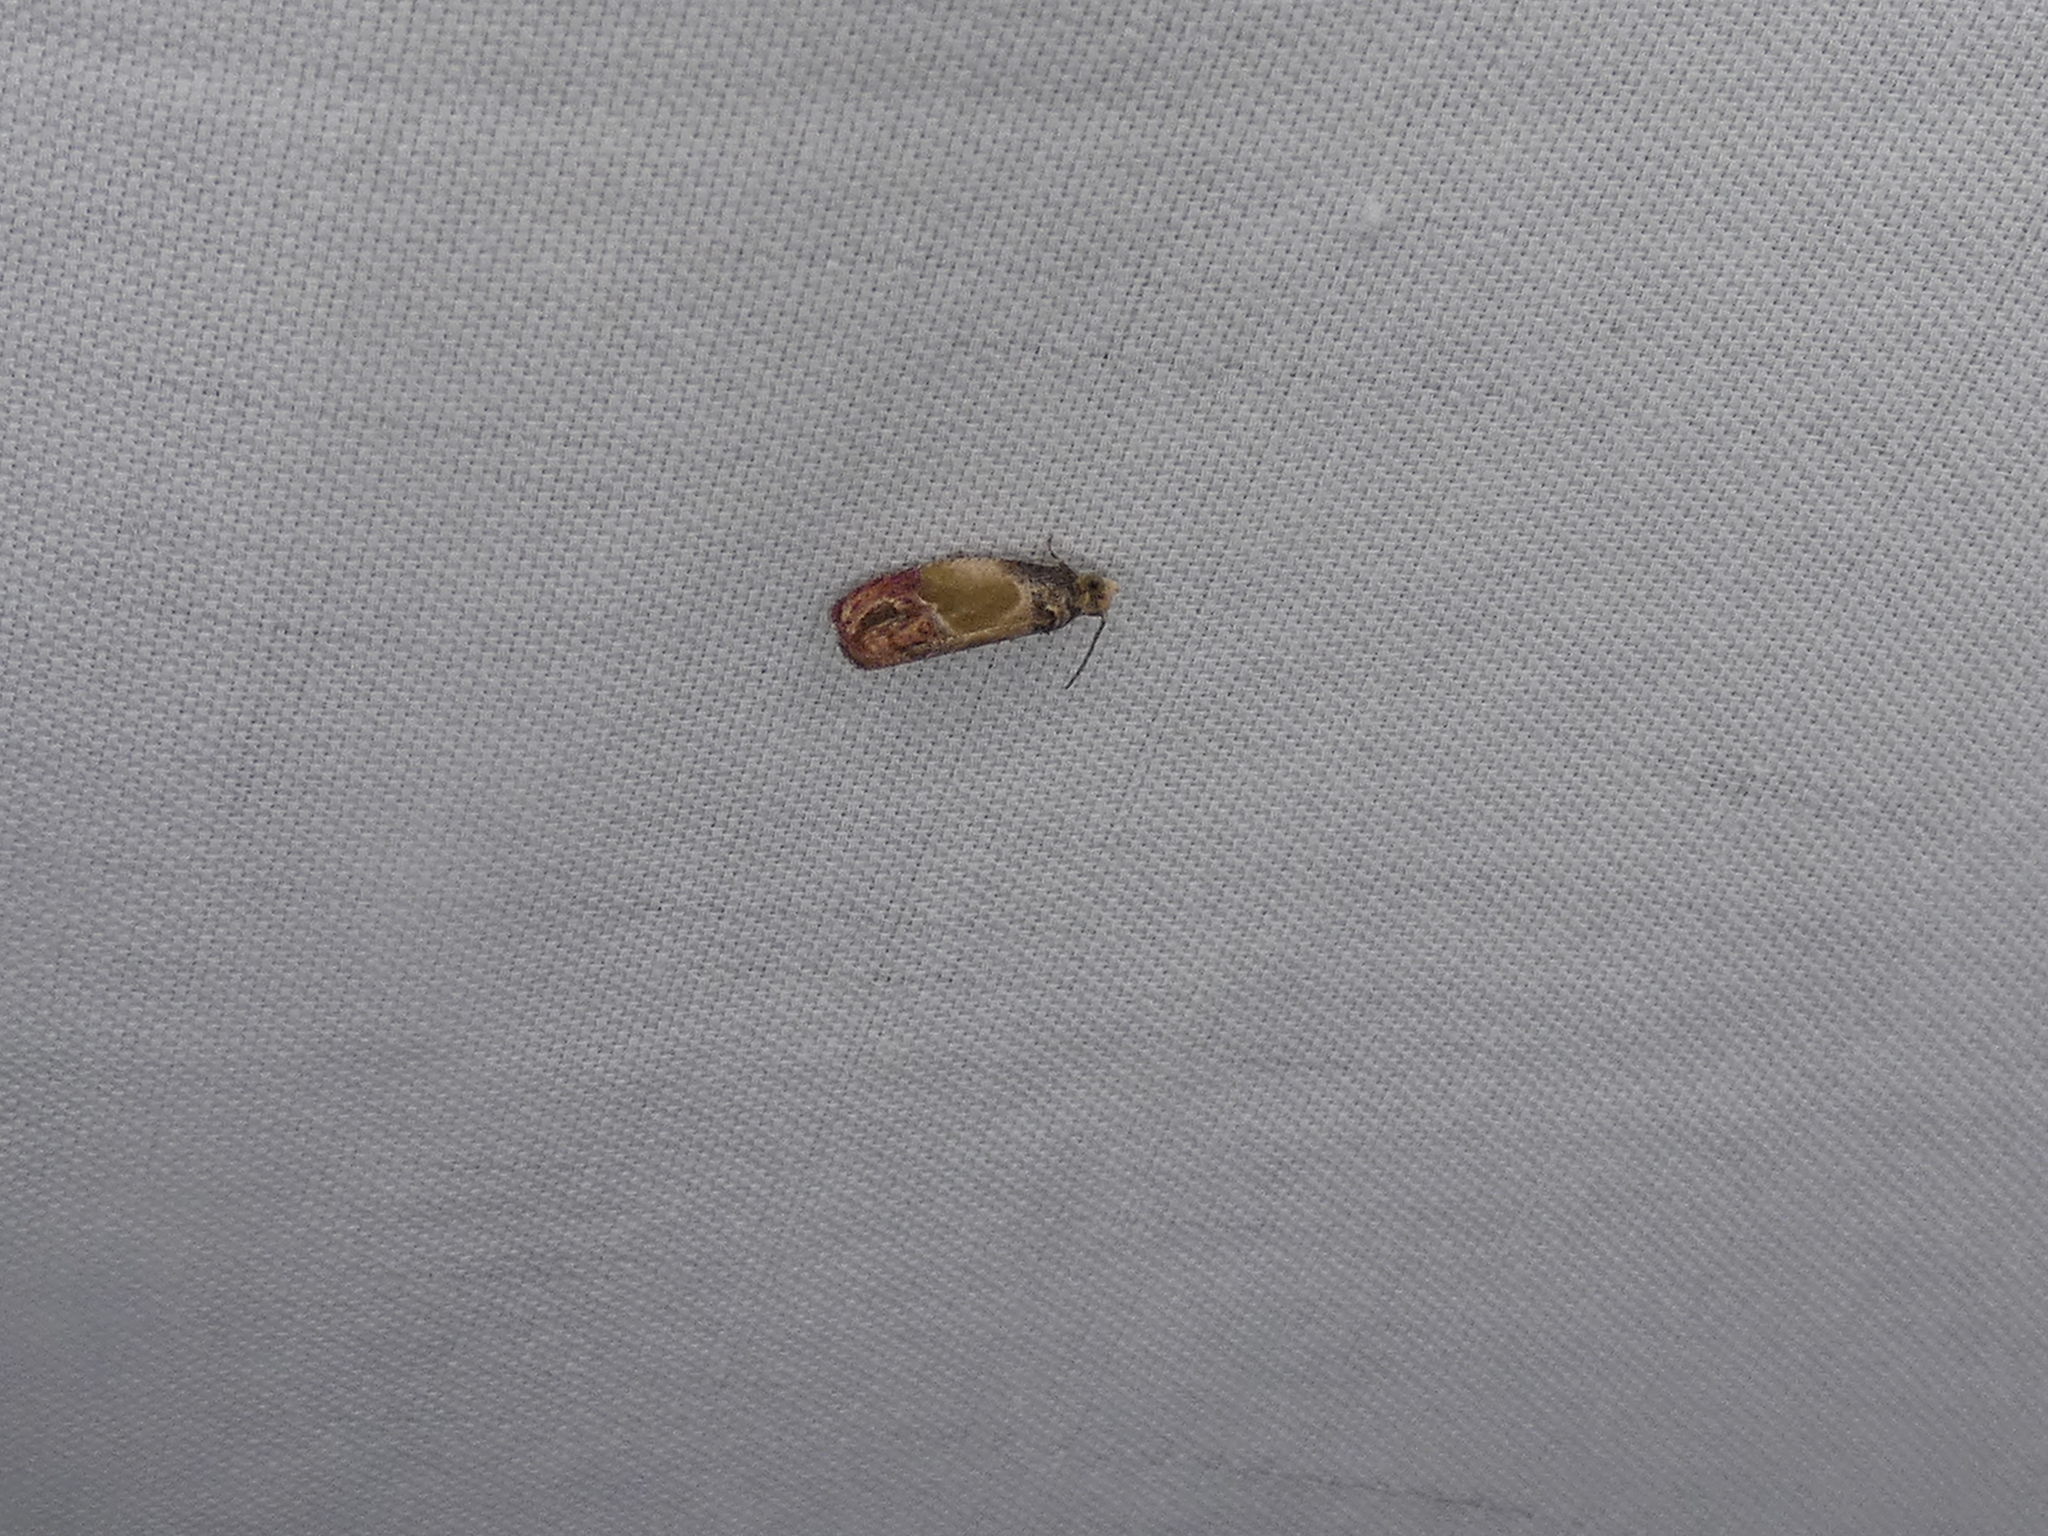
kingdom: Animalia
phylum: Arthropoda
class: Insecta
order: Lepidoptera
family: Tortricidae
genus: Eumarozia
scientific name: Eumarozia malachitana
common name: Sculptured moth
